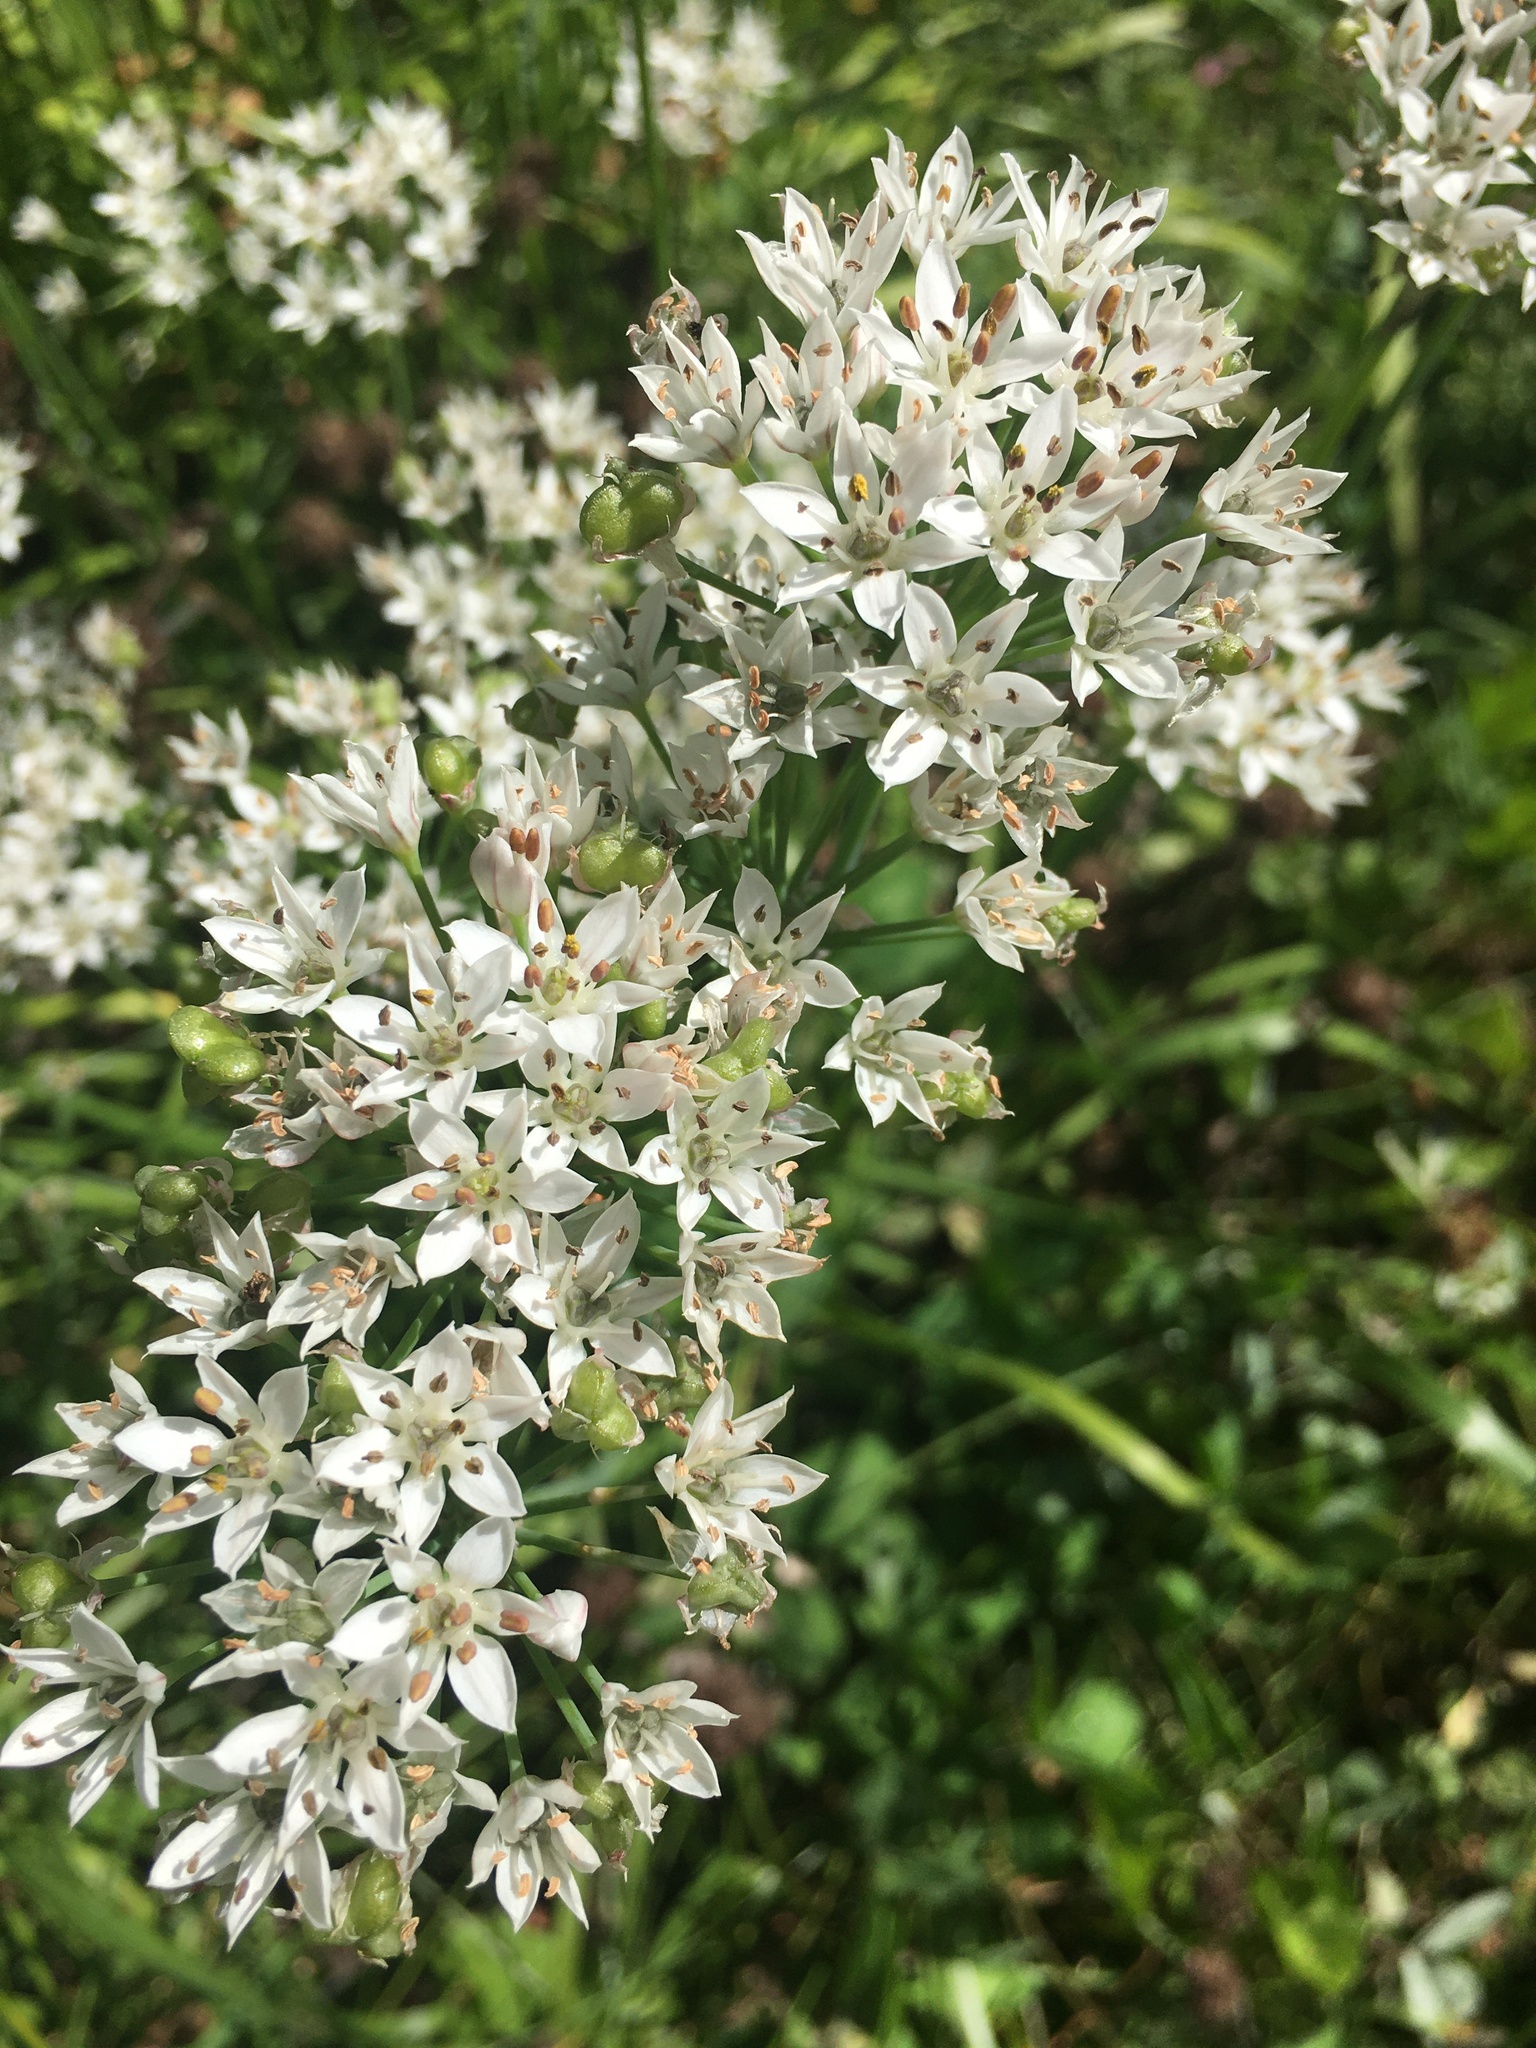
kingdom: Plantae
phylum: Tracheophyta
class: Liliopsida
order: Asparagales
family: Amaryllidaceae
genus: Allium
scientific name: Allium tuberosum
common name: Chinese chives
